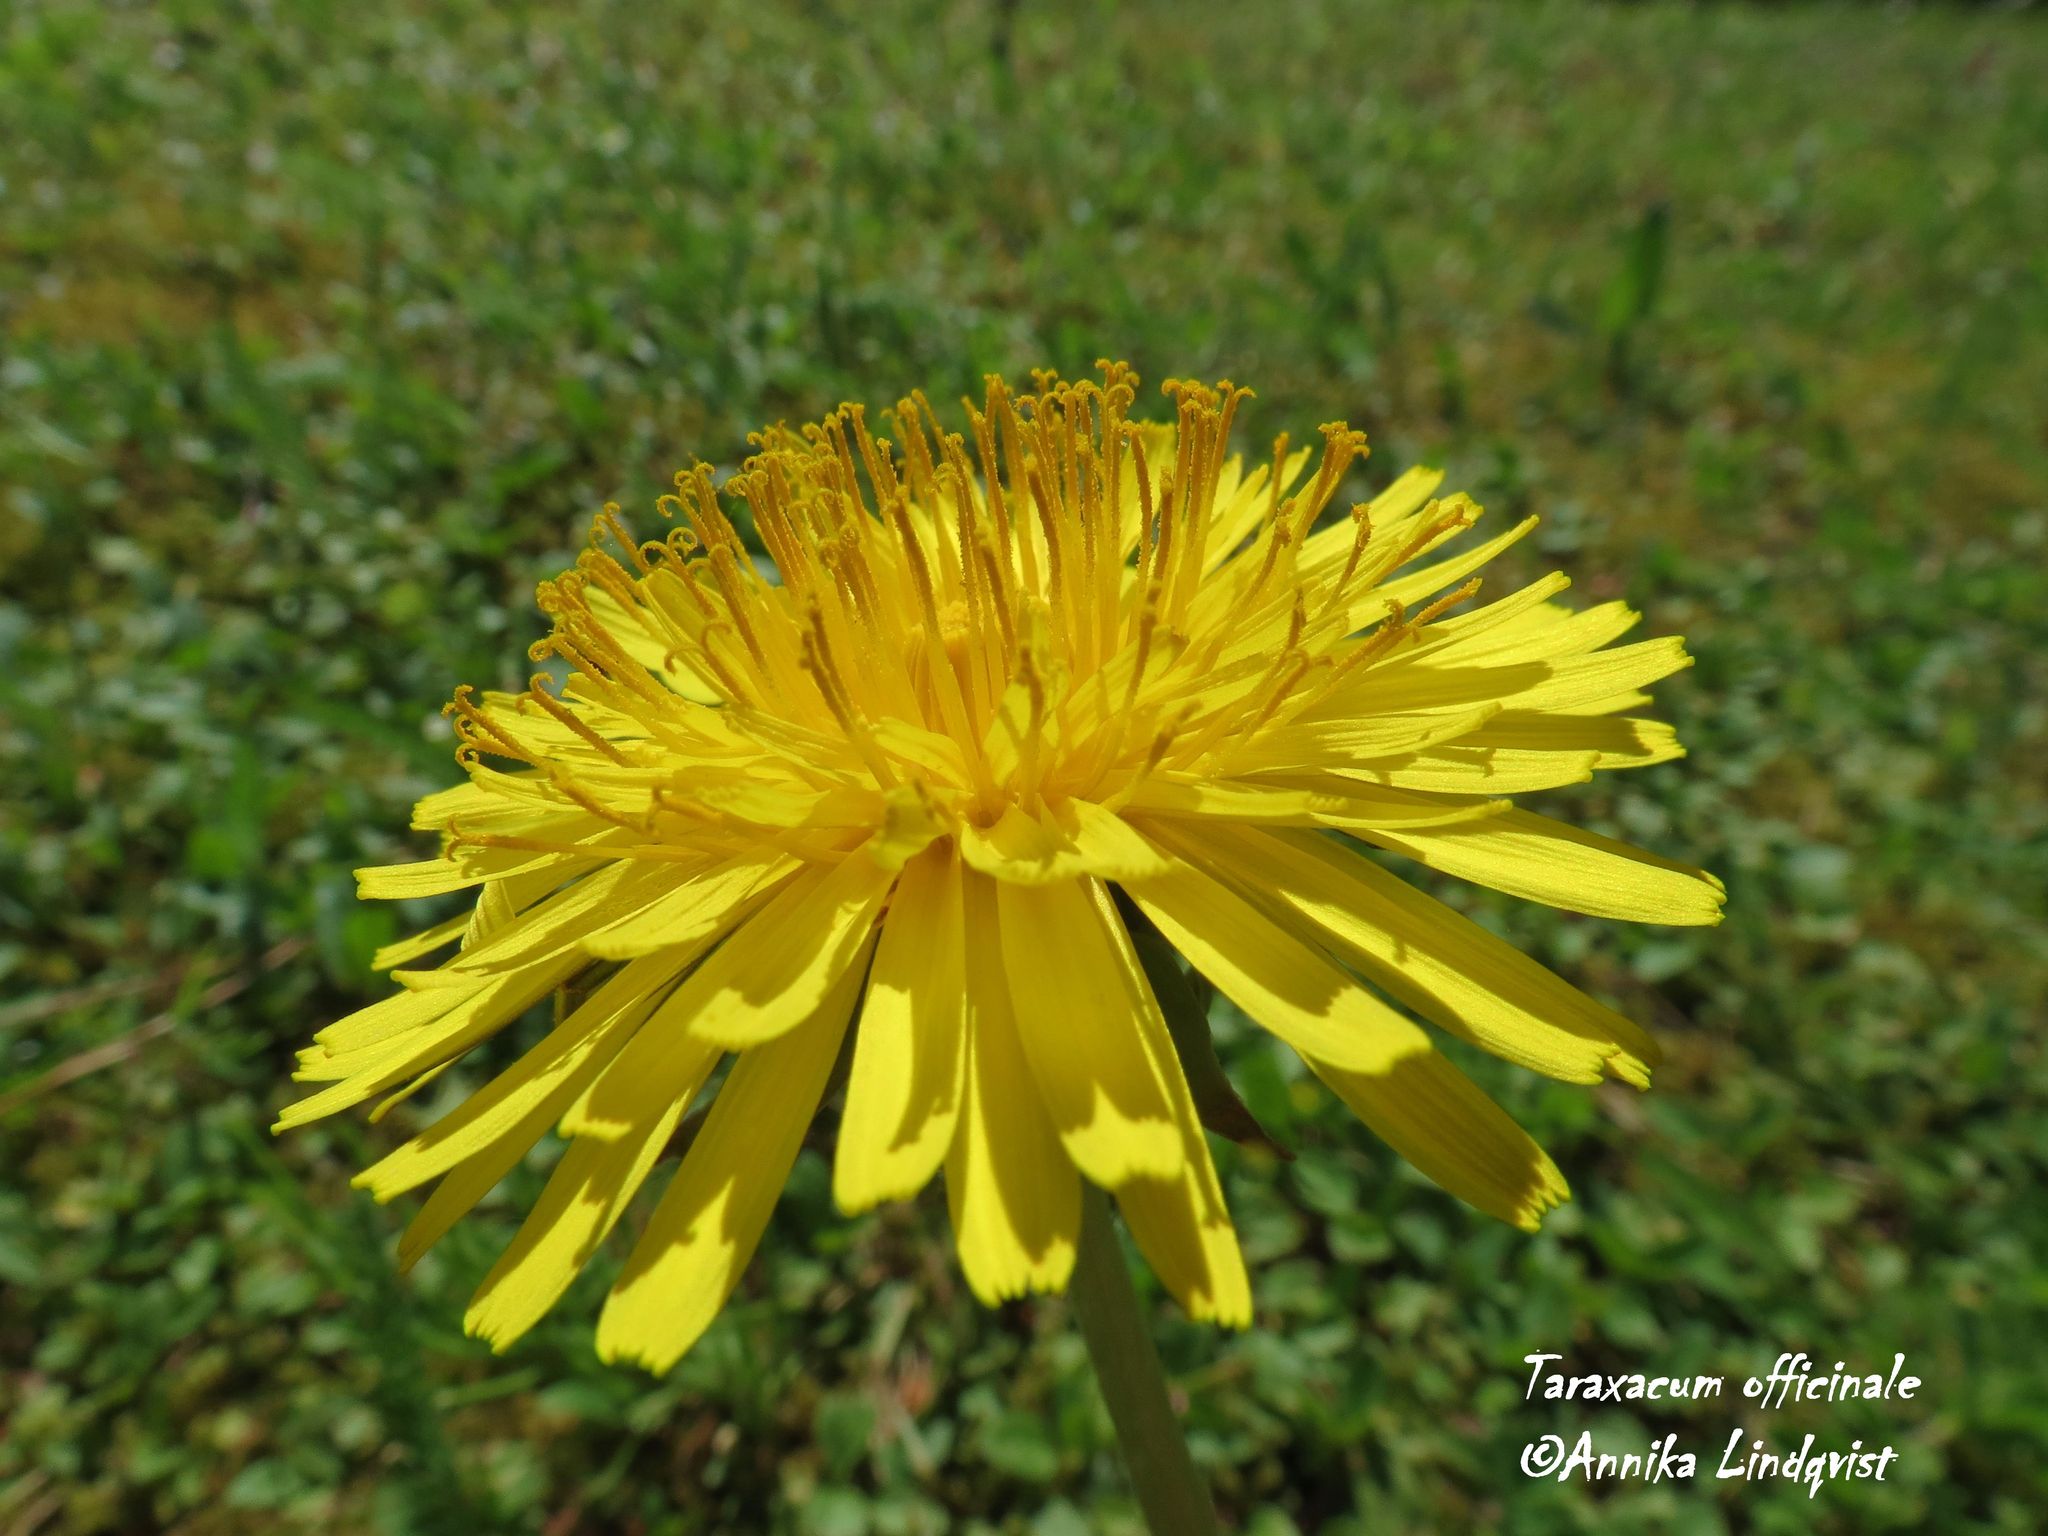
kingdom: Plantae
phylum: Tracheophyta
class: Magnoliopsida
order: Asterales
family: Asteraceae
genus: Taraxacum
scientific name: Taraxacum officinale
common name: Common dandelion
